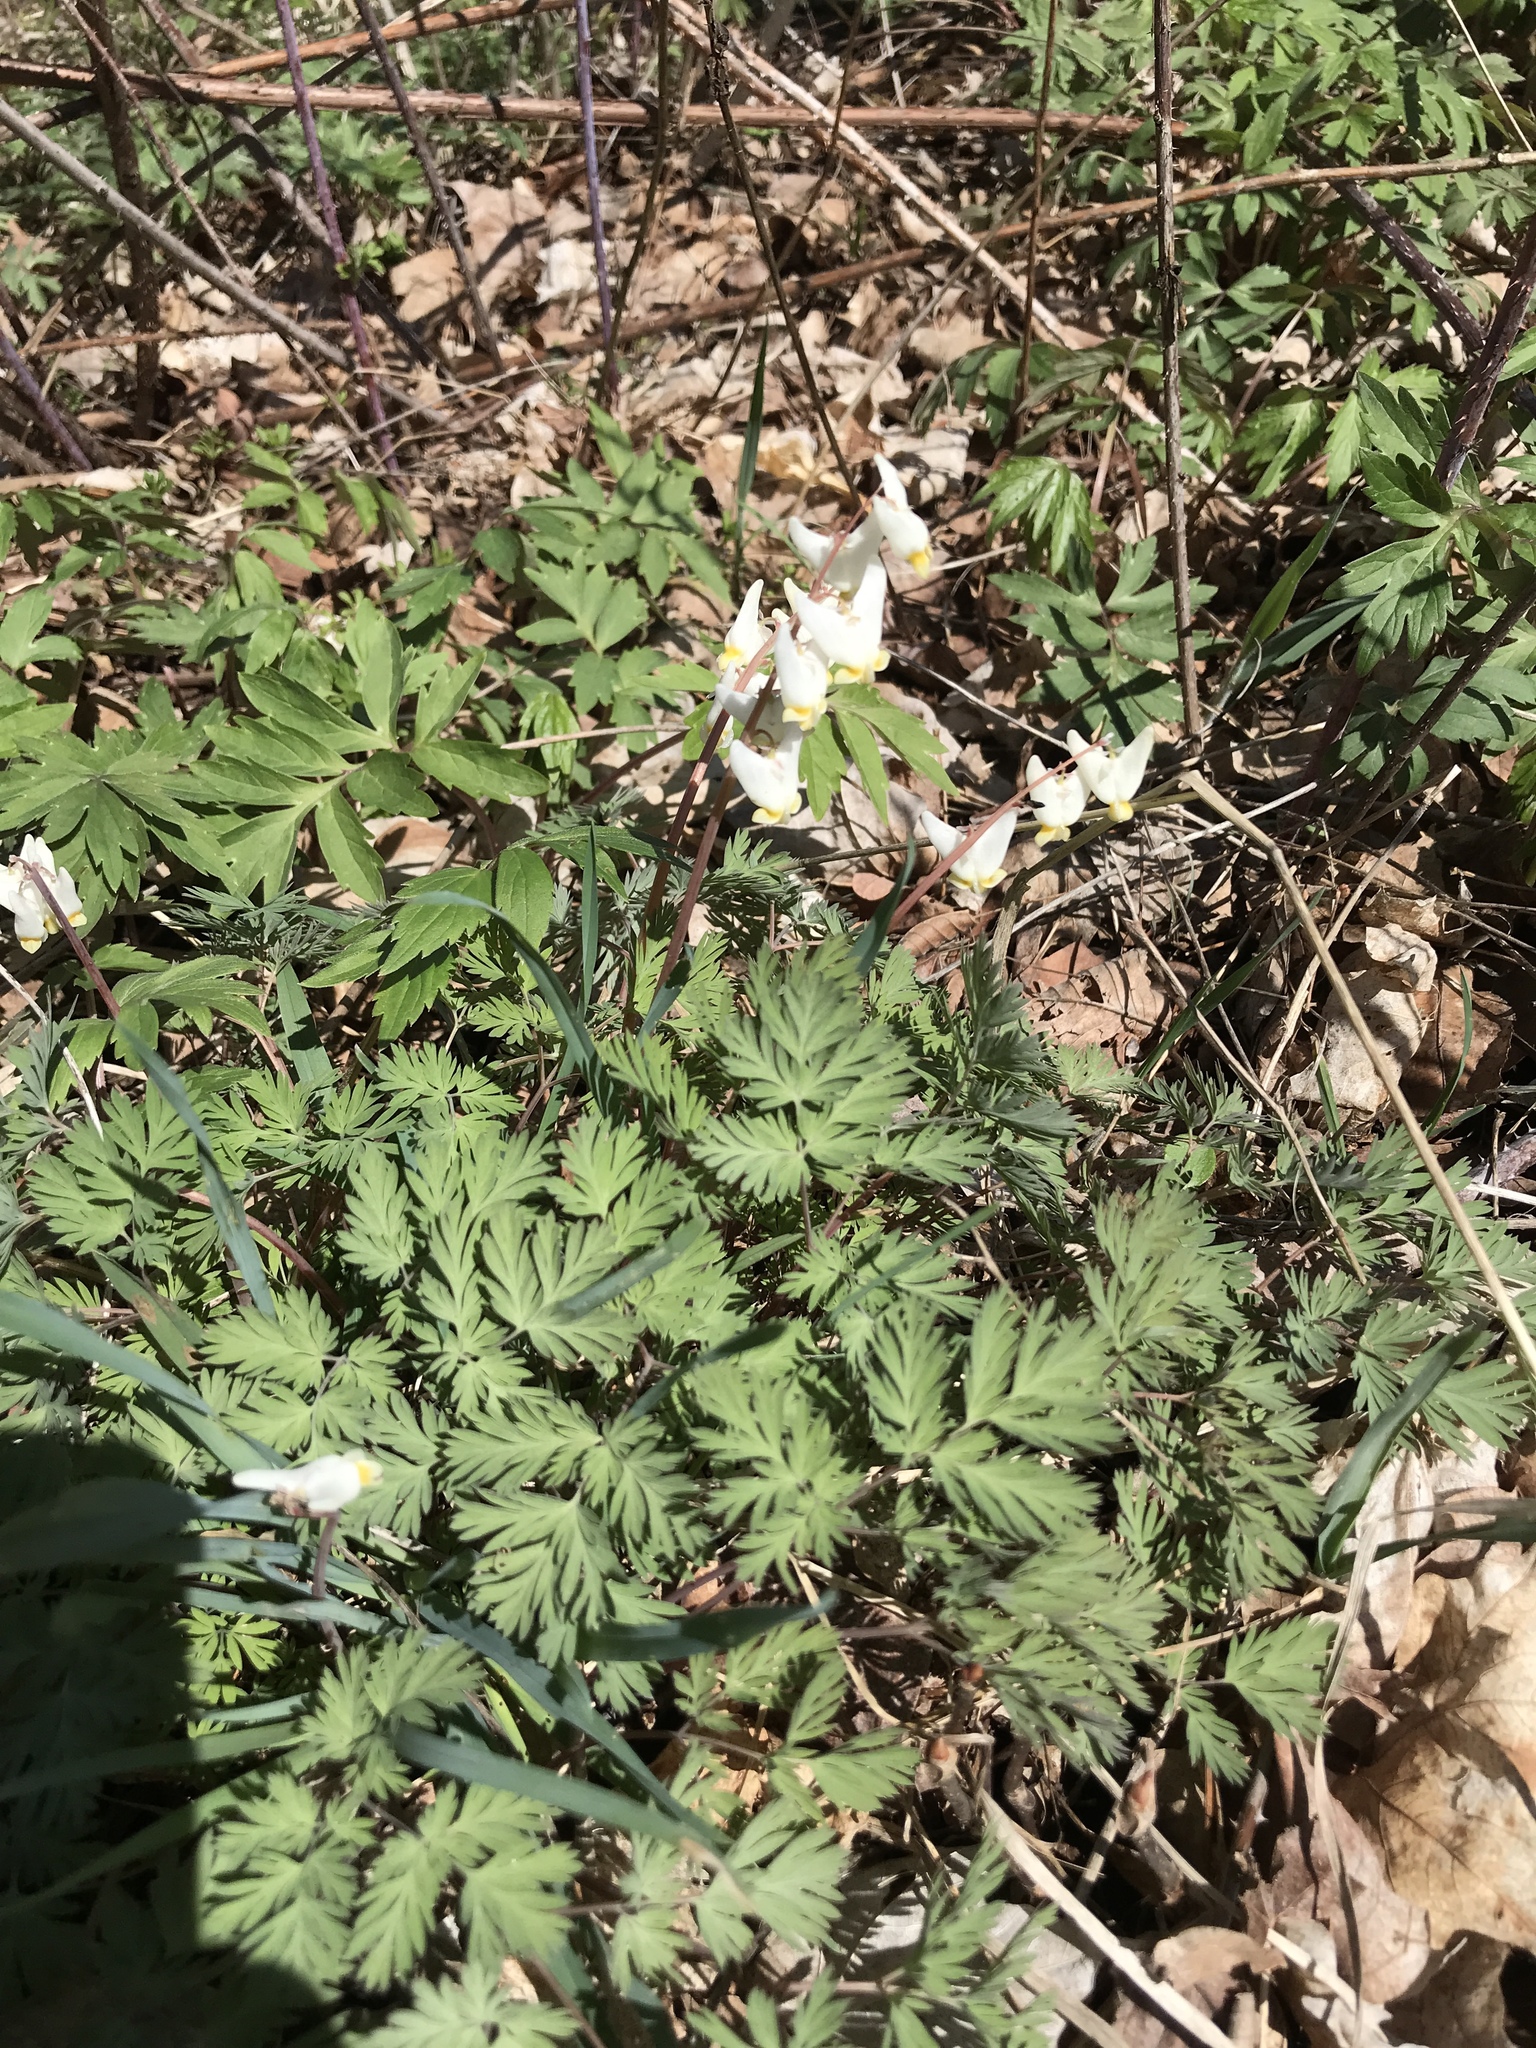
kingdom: Plantae
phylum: Tracheophyta
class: Magnoliopsida
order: Ranunculales
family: Papaveraceae
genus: Dicentra
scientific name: Dicentra cucullaria
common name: Dutchman's breeches
